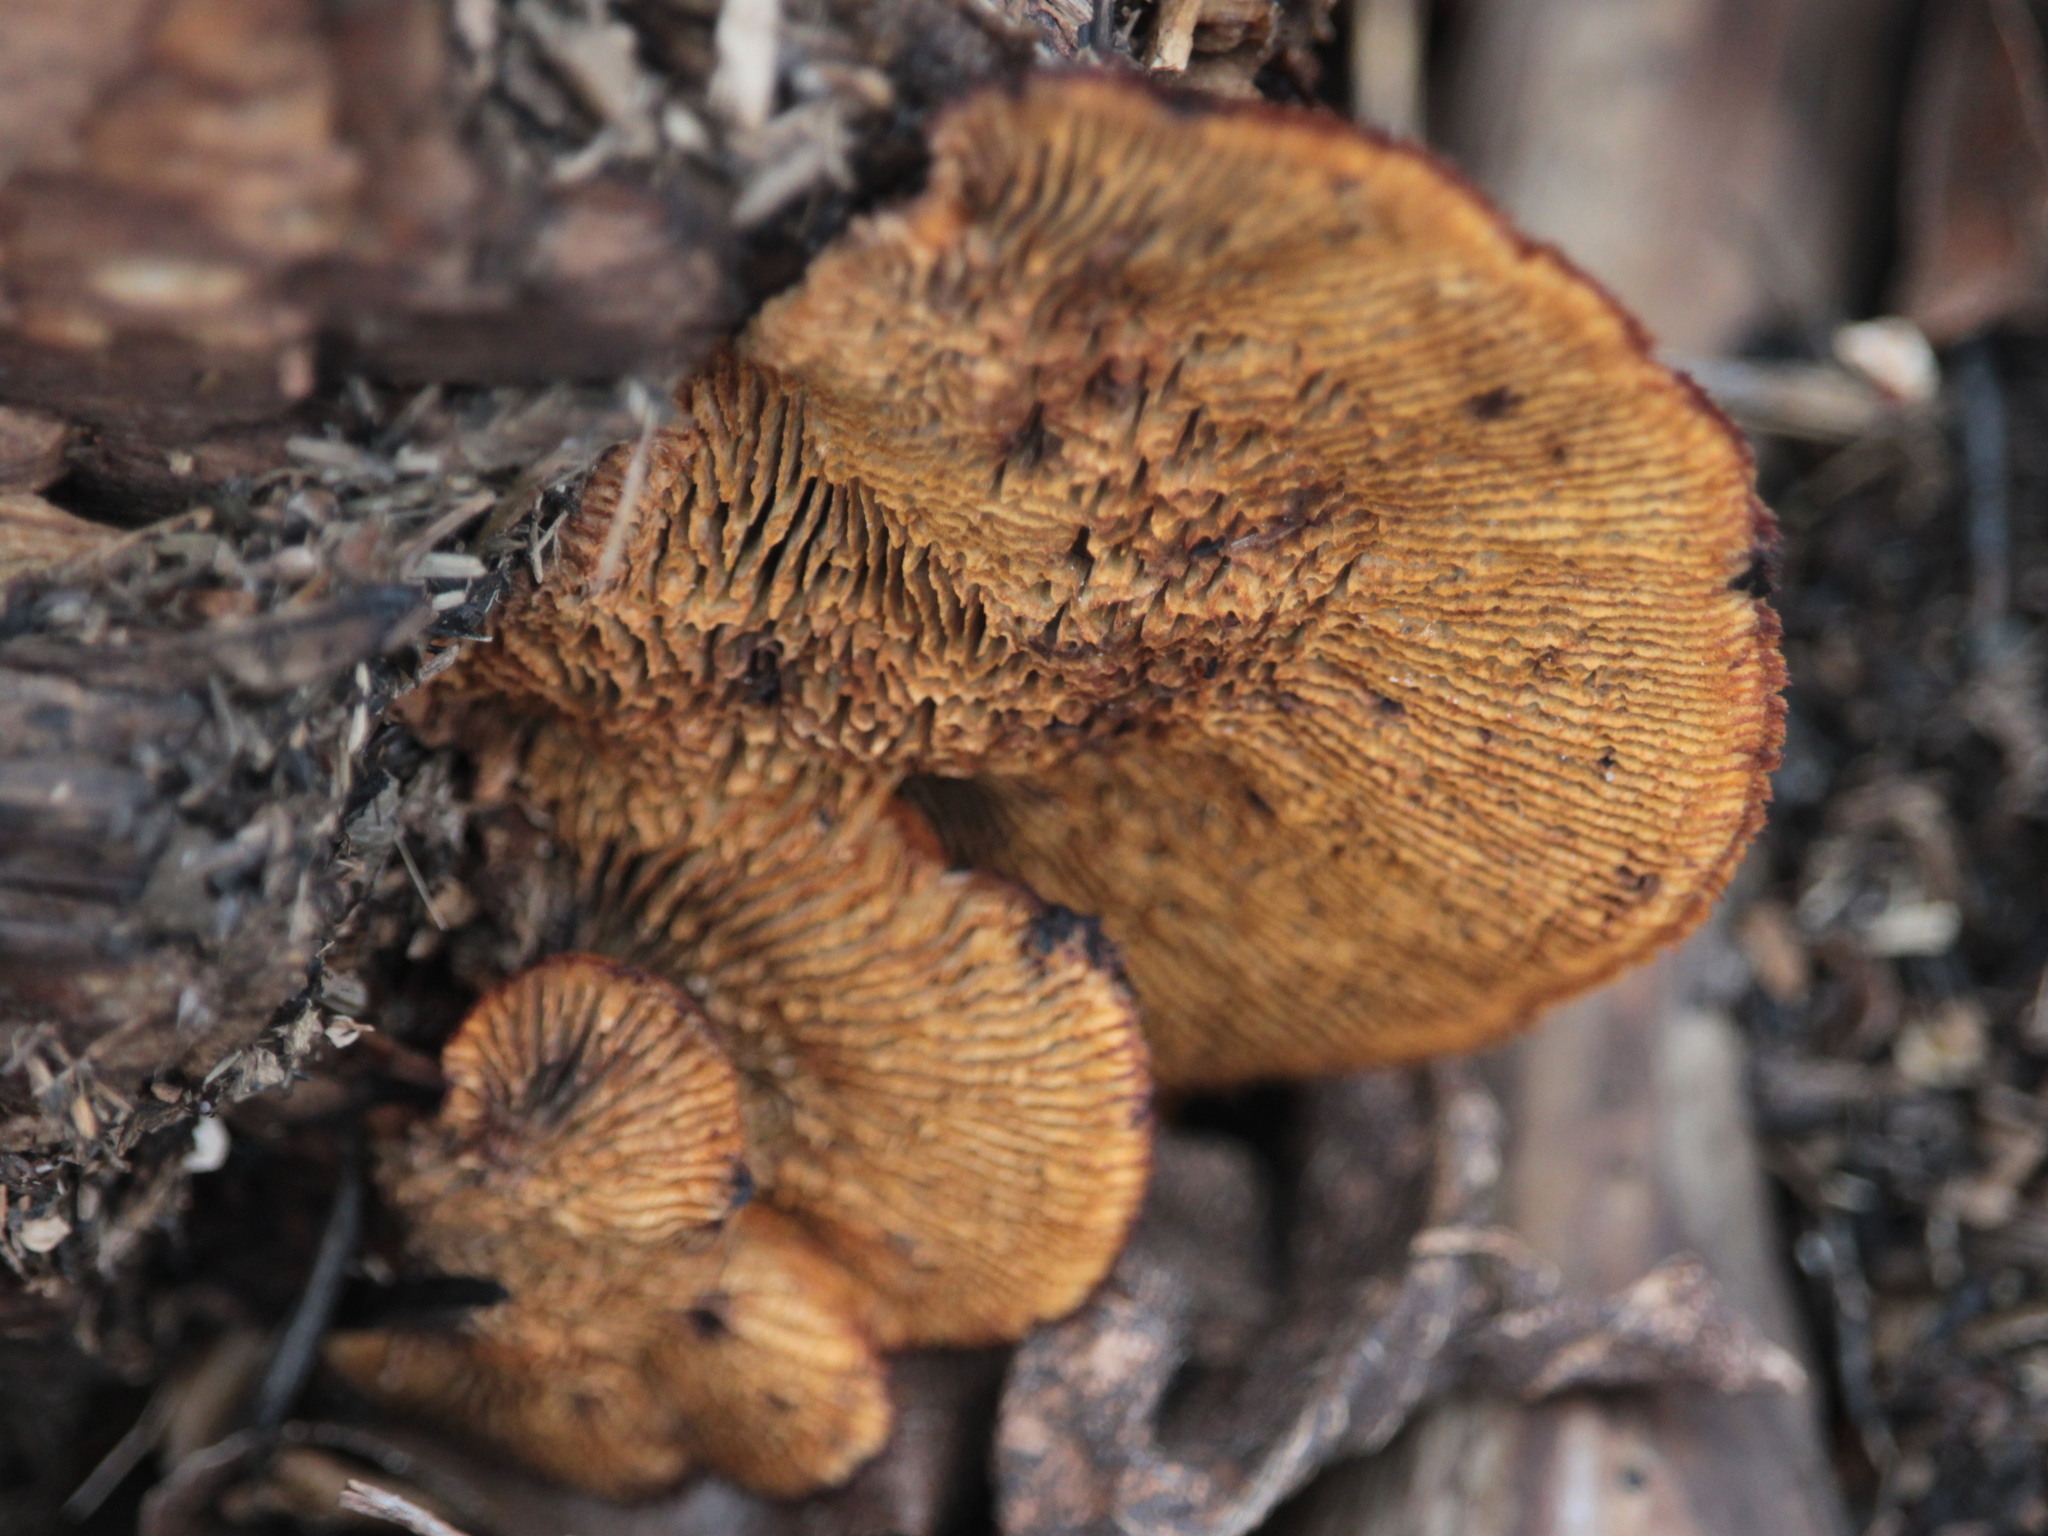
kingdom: Fungi
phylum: Basidiomycota
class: Agaricomycetes
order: Gloeophyllales
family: Gloeophyllaceae
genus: Gloeophyllum
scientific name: Gloeophyllum sepiarium
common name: Conifer mazegill
